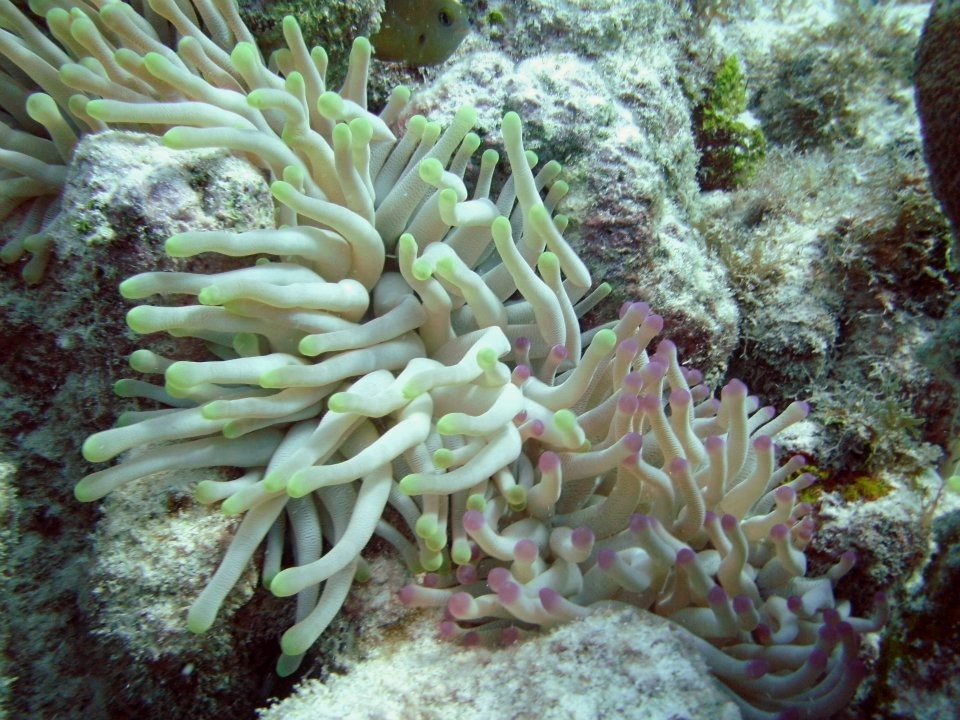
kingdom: Animalia
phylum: Cnidaria
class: Anthozoa
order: Actiniaria
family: Actiniidae
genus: Condylactis
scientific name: Condylactis gigantea
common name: Giant caribbean anemone
